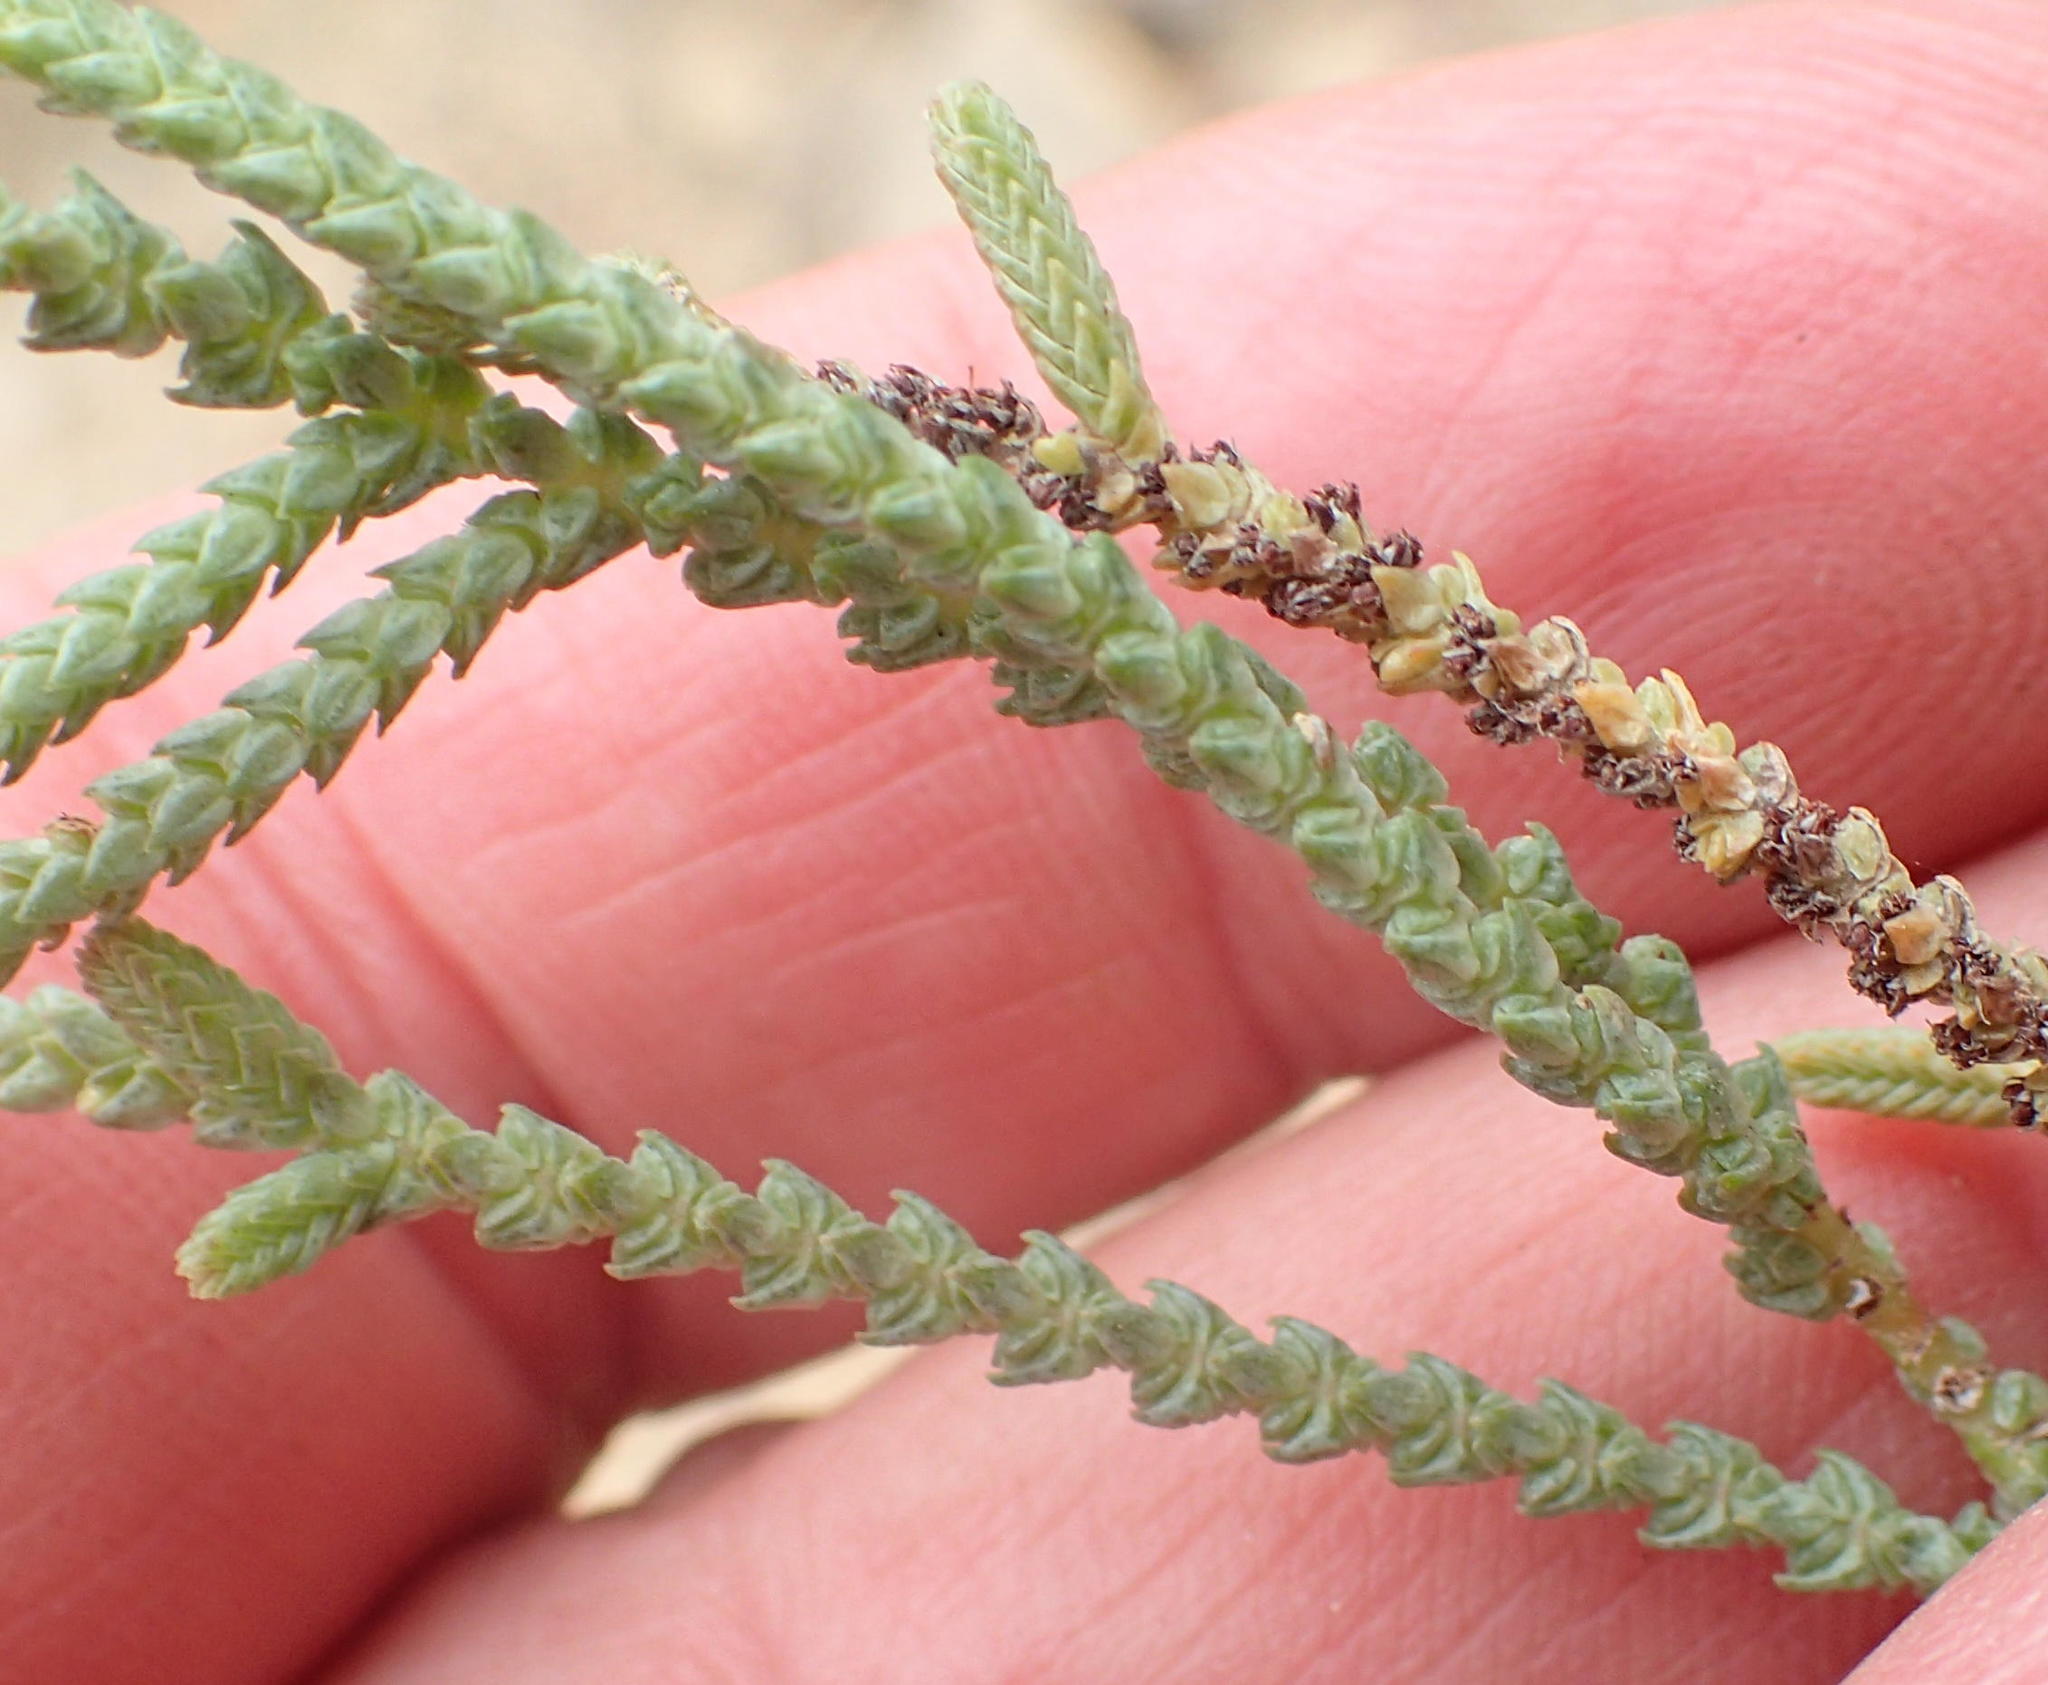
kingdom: Plantae
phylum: Tracheophyta
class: Magnoliopsida
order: Saxifragales
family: Crassulaceae
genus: Crassula
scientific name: Crassula muscosa
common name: Toy-cypress
